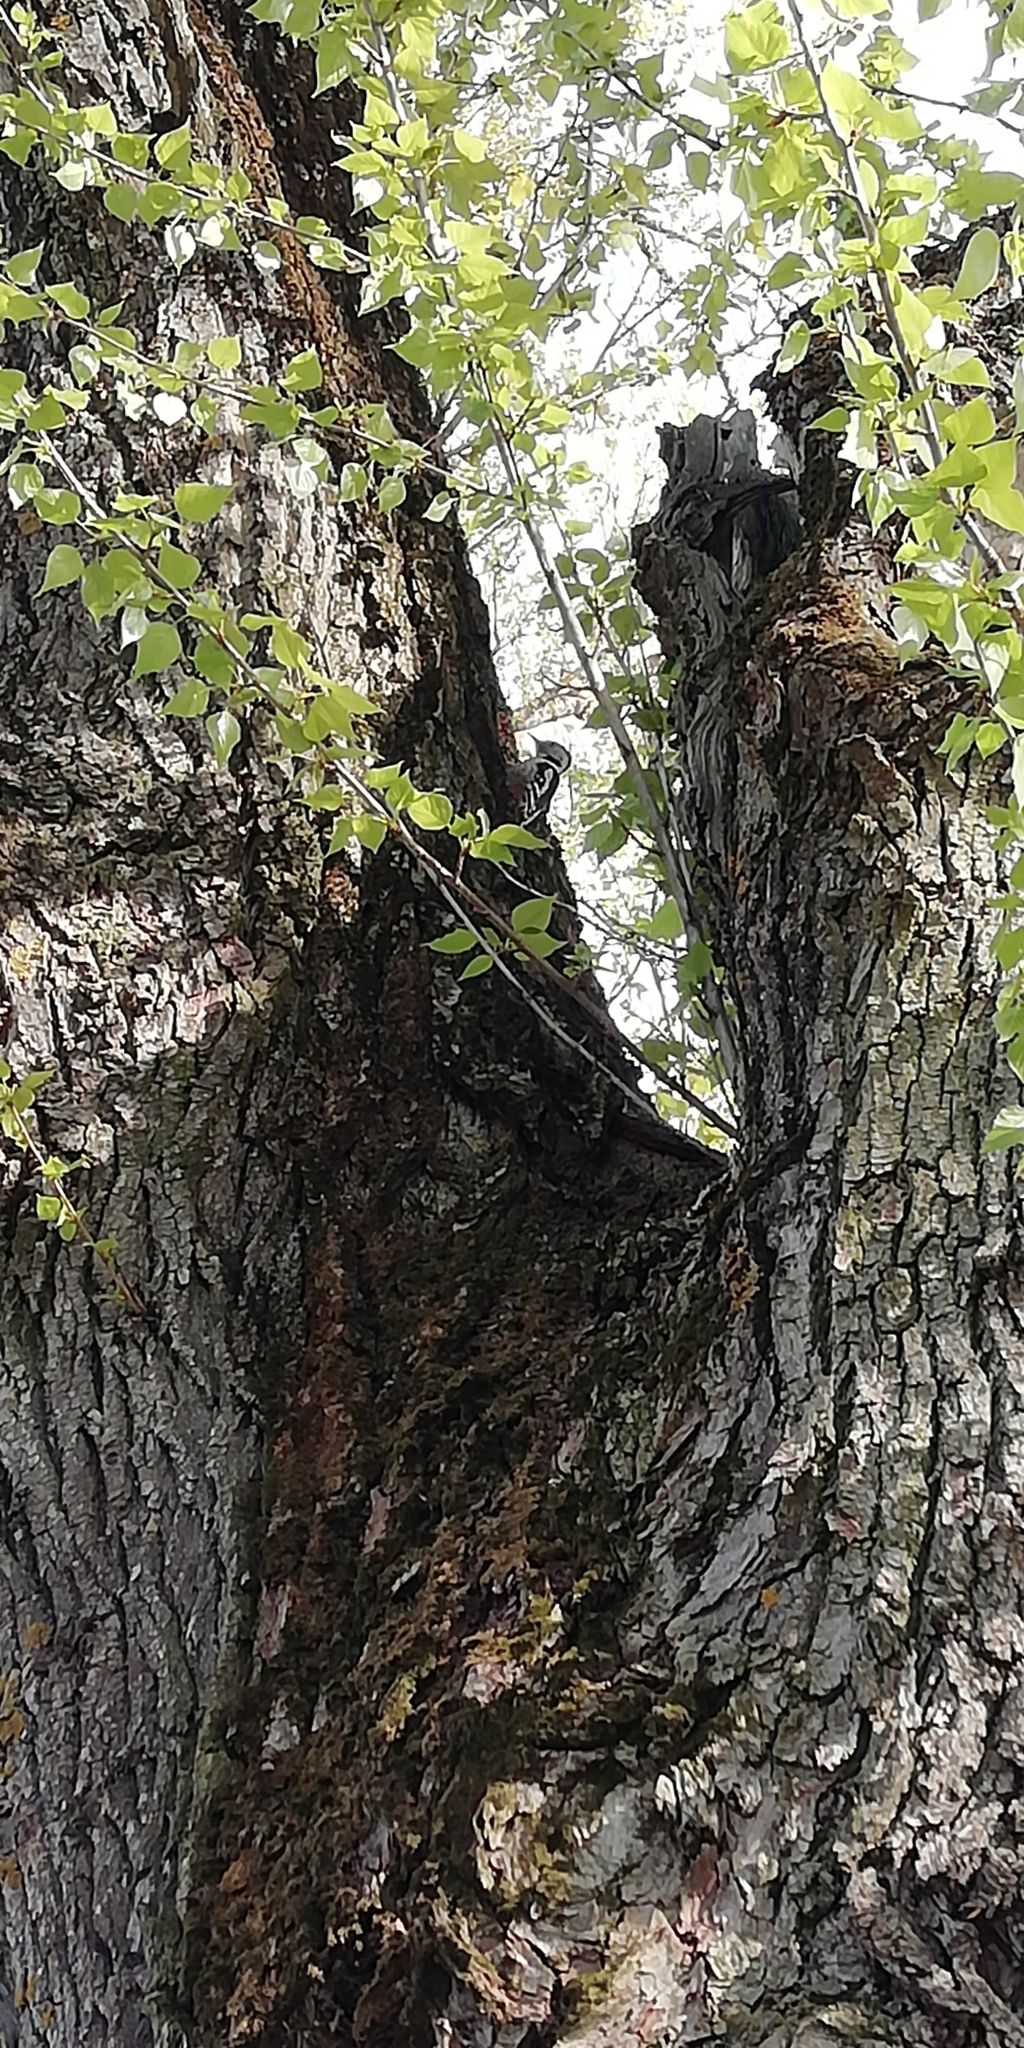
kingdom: Animalia
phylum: Chordata
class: Aves
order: Piciformes
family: Picidae
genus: Dendrocoptes
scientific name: Dendrocoptes medius
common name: Middle spotted woodpecker
